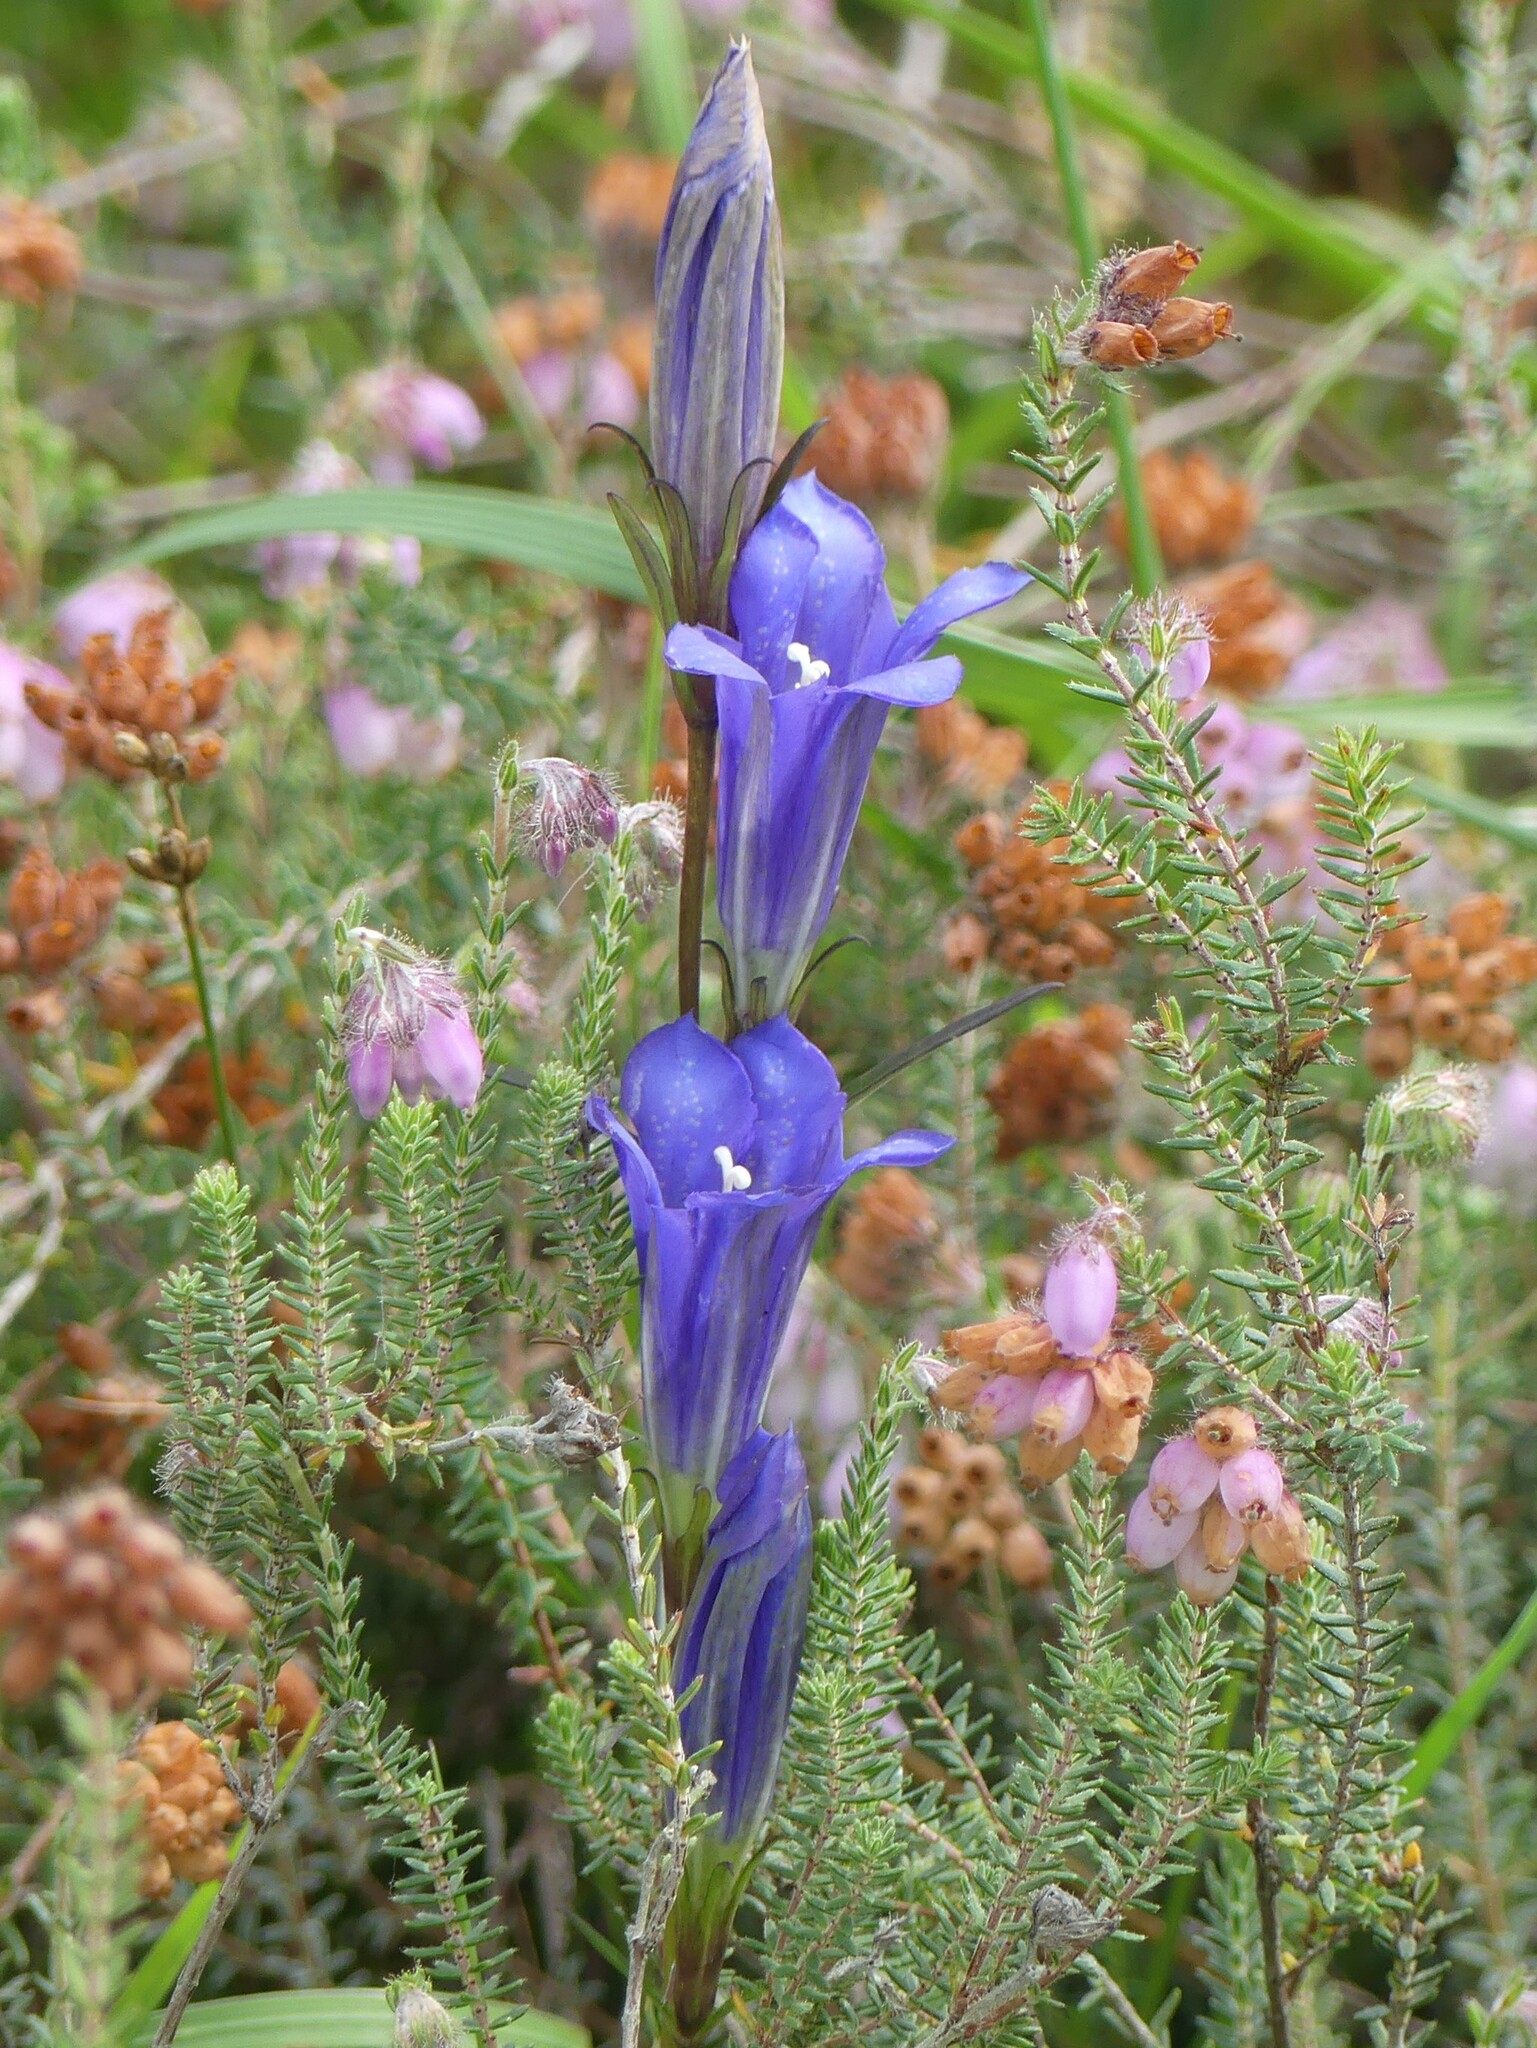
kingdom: Plantae
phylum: Tracheophyta
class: Magnoliopsida
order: Gentianales
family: Gentianaceae
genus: Gentiana
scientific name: Gentiana pneumonanthe
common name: Marsh gentian
